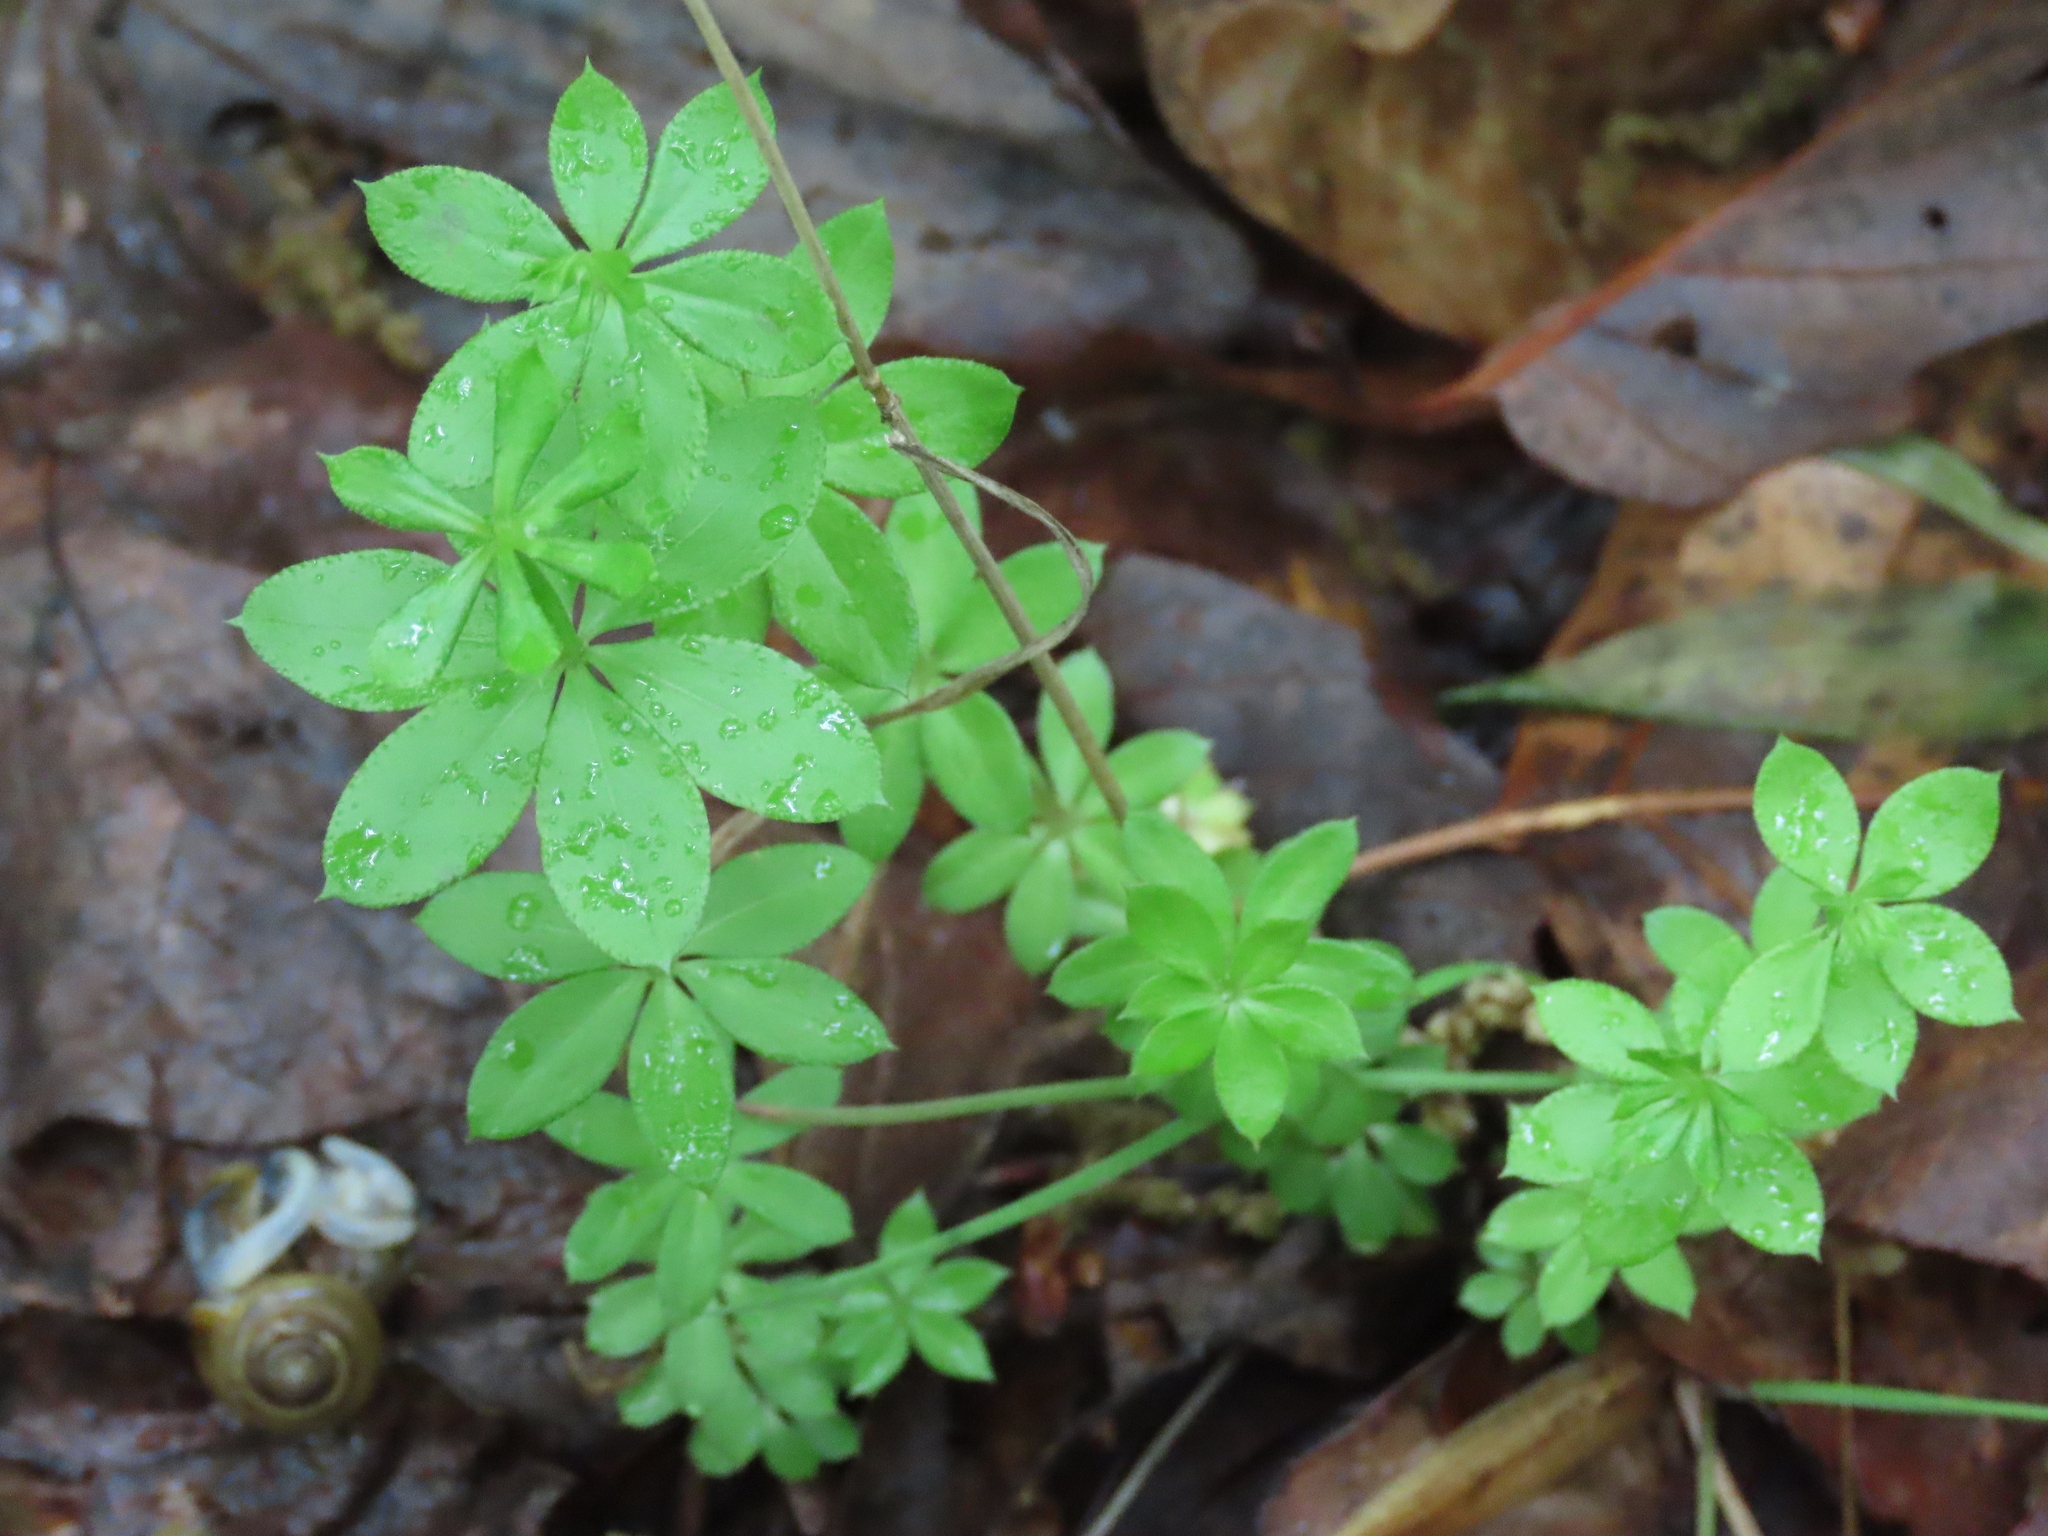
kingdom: Plantae
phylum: Tracheophyta
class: Magnoliopsida
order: Gentianales
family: Rubiaceae
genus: Galium
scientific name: Galium triflorum
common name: Fragrant bedstraw
